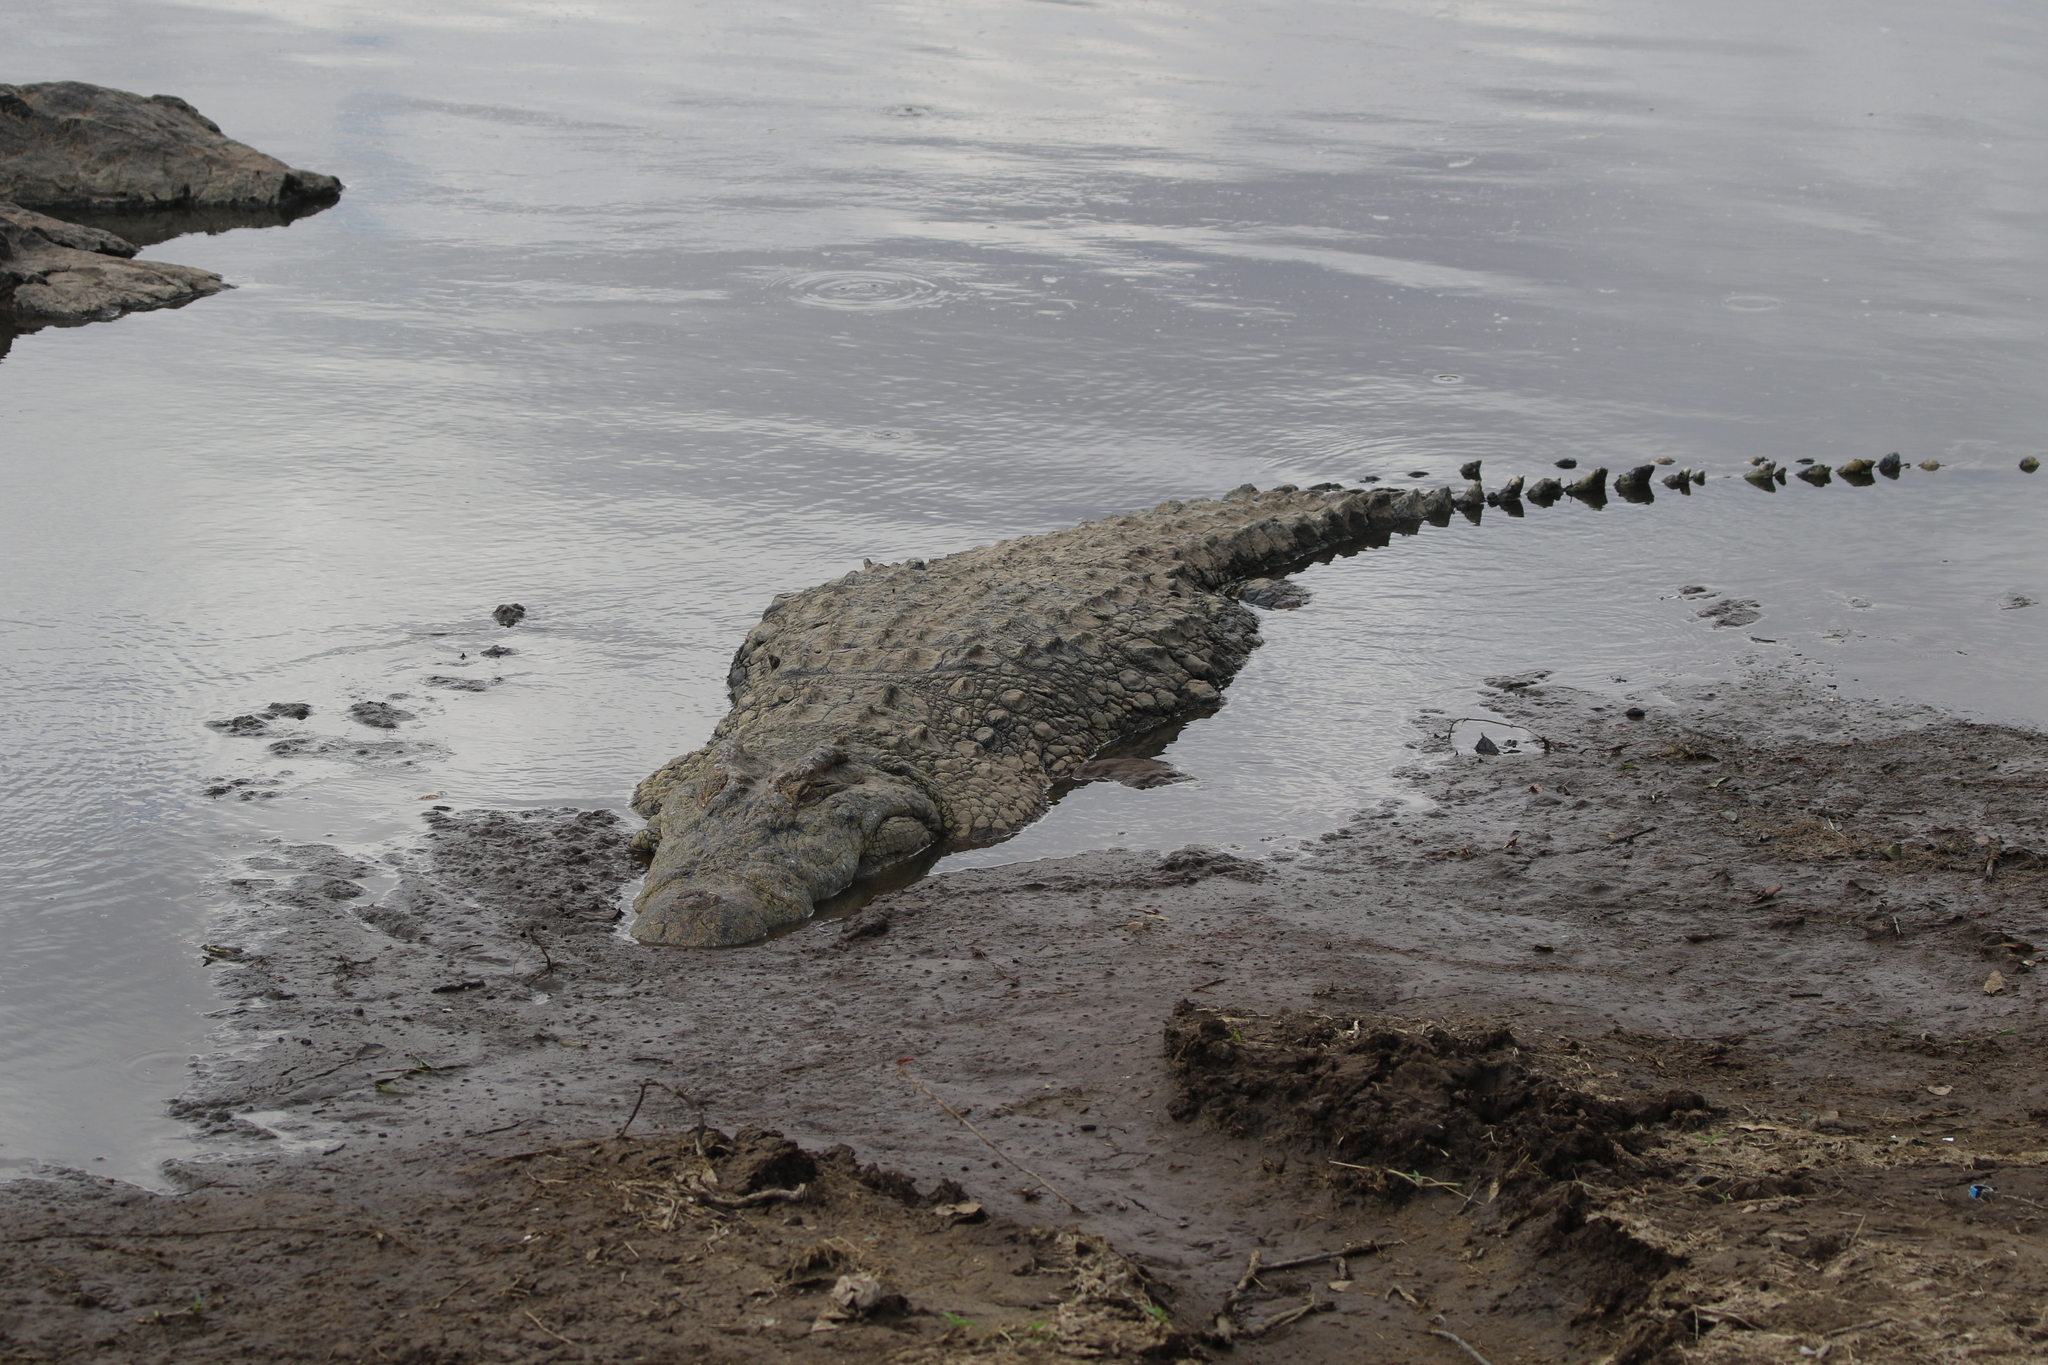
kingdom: Animalia
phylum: Chordata
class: Crocodylia
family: Crocodylidae
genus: Crocodylus
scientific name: Crocodylus niloticus
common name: Nile crocodile
